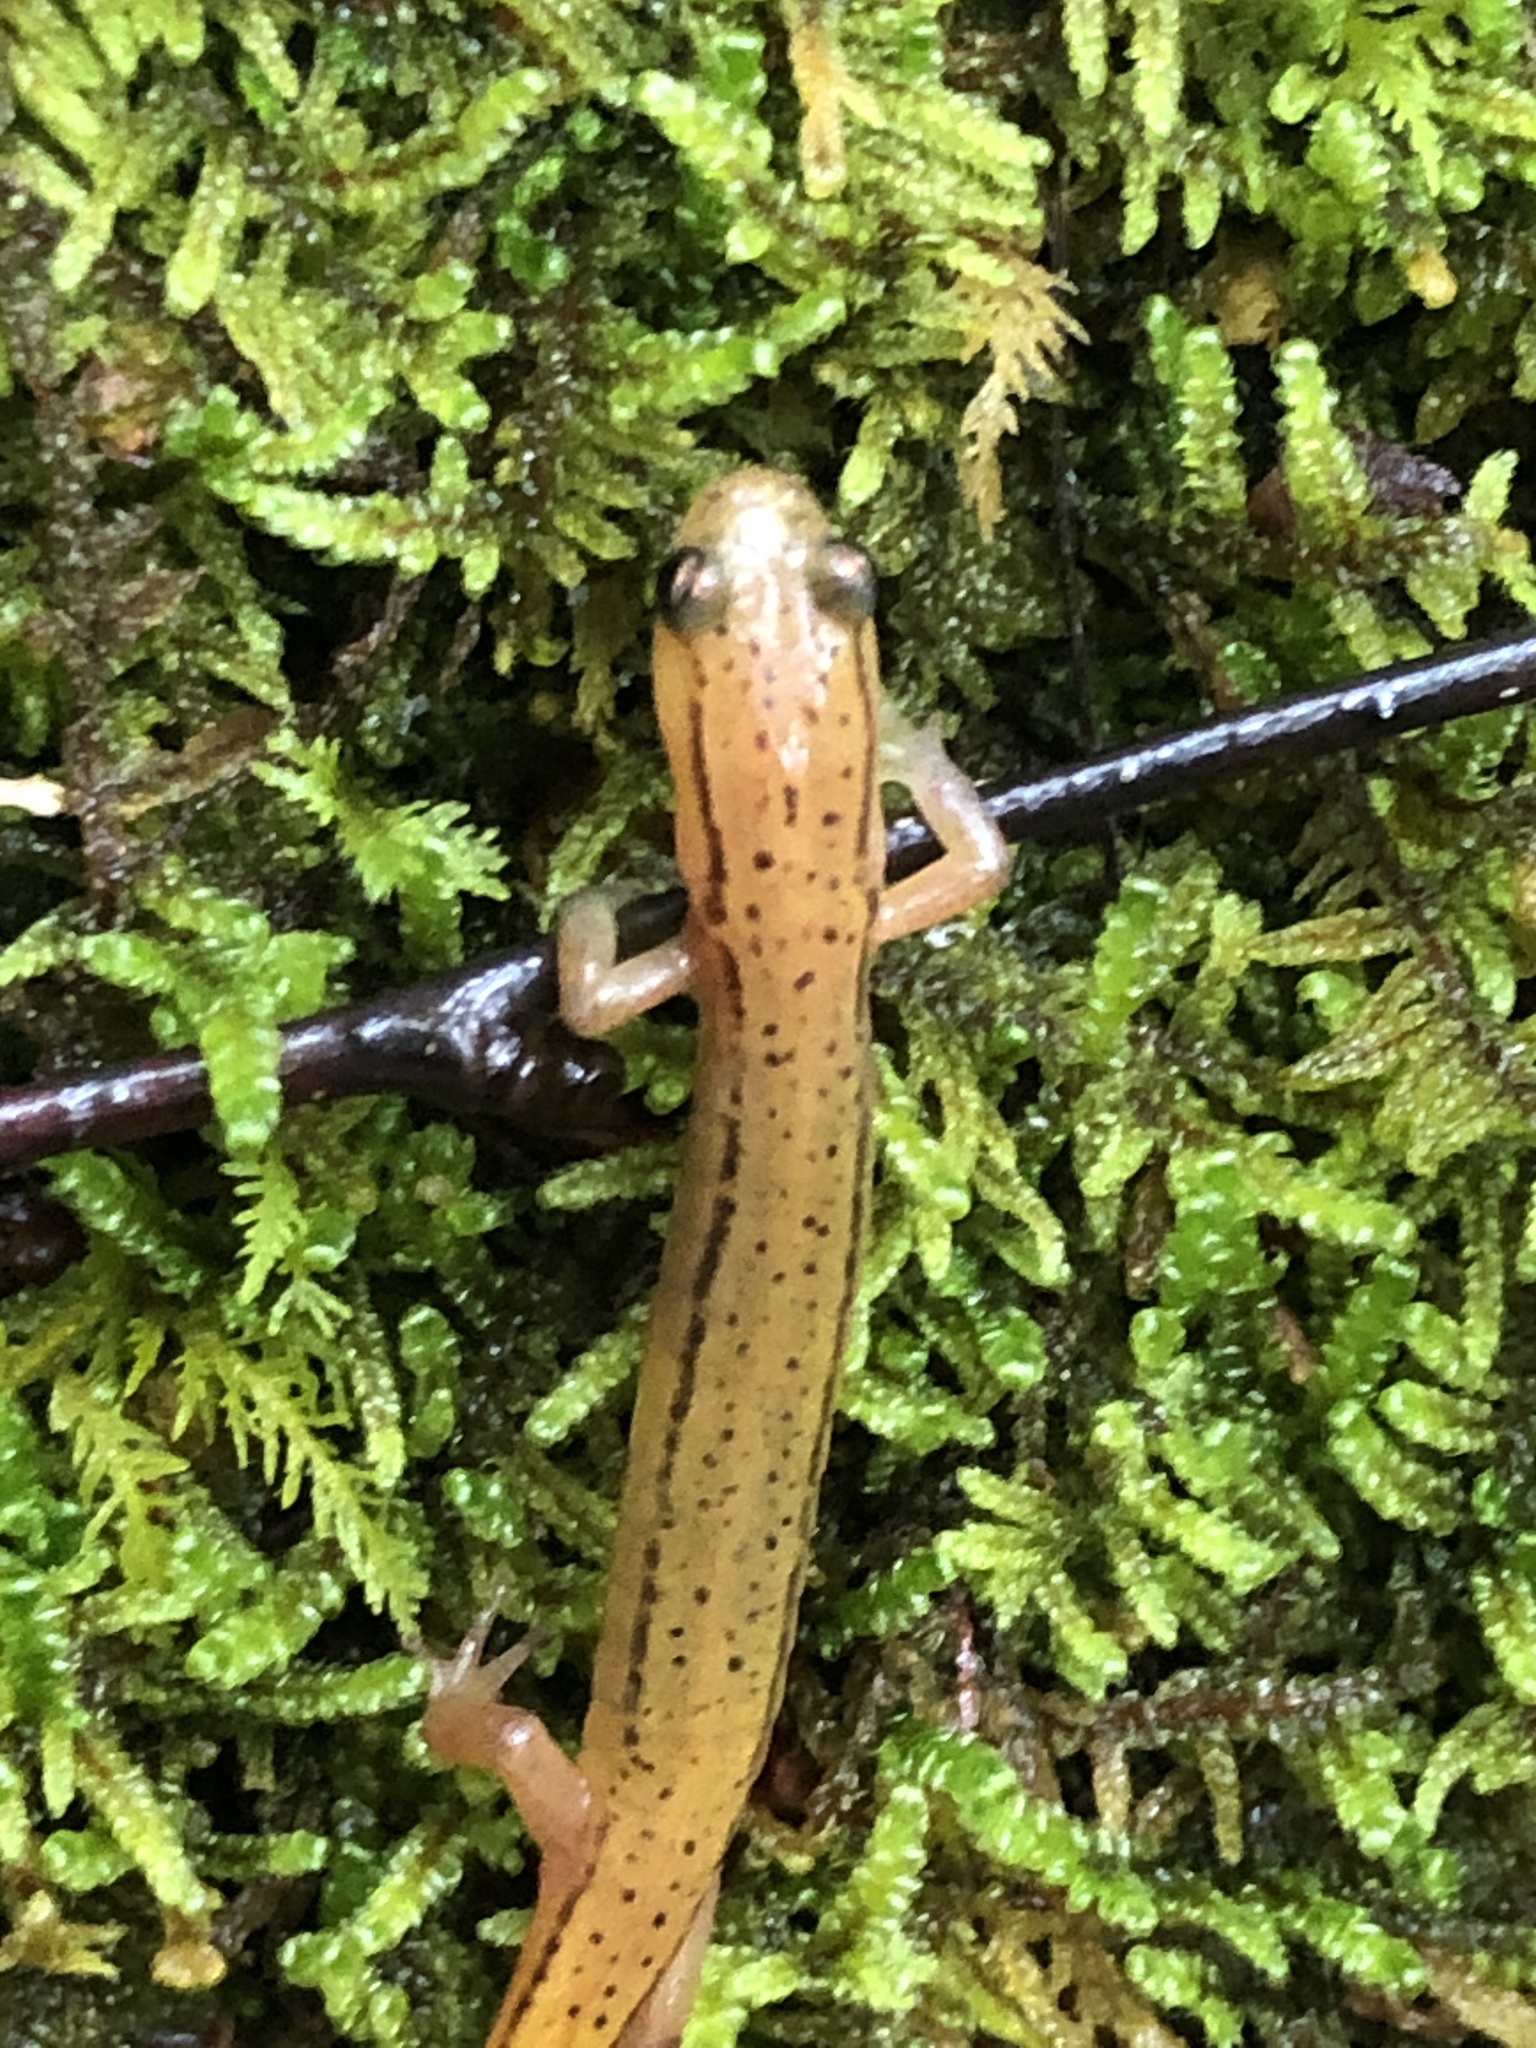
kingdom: Animalia
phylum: Chordata
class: Amphibia
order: Caudata
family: Plethodontidae
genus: Eurycea
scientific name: Eurycea wilderae
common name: Blue ridge two-lined salamander
